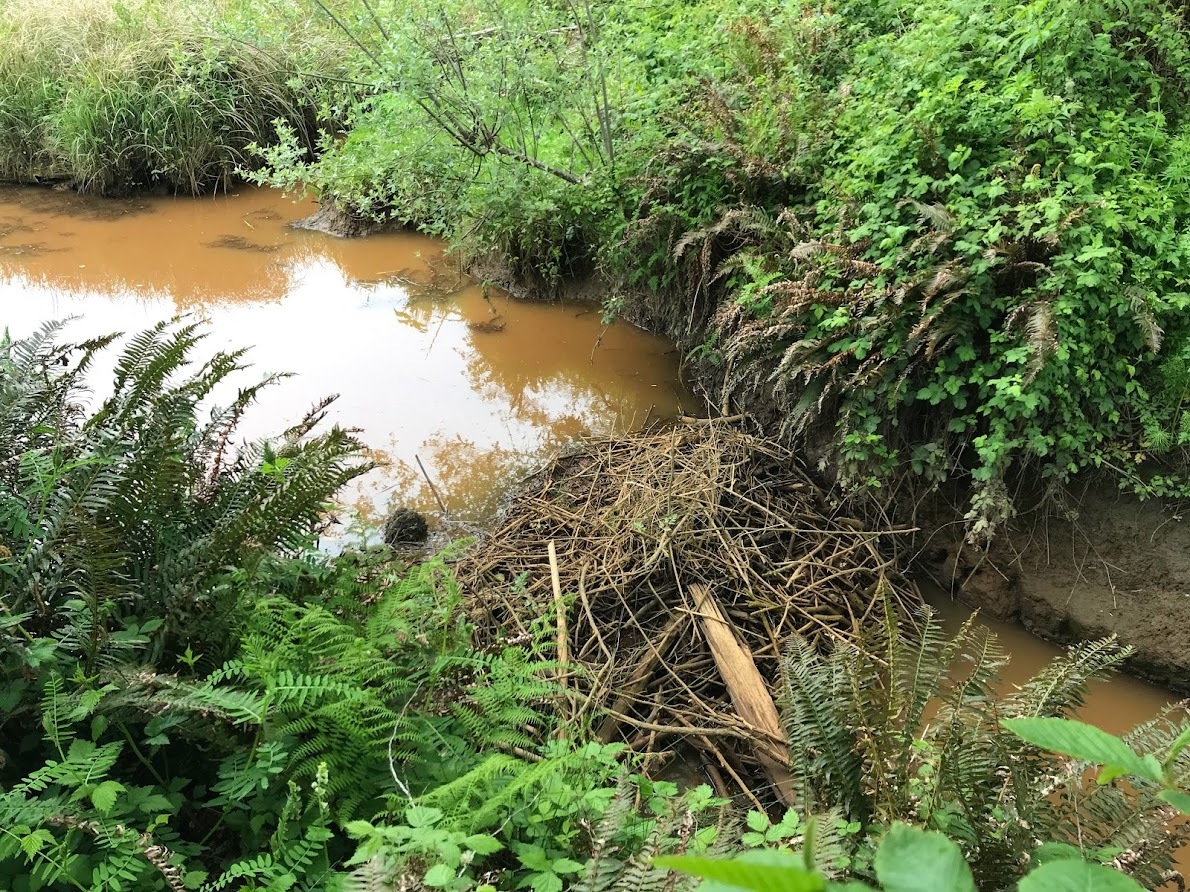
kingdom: Animalia
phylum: Chordata
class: Mammalia
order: Rodentia
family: Castoridae
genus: Castor
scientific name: Castor canadensis
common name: American beaver
